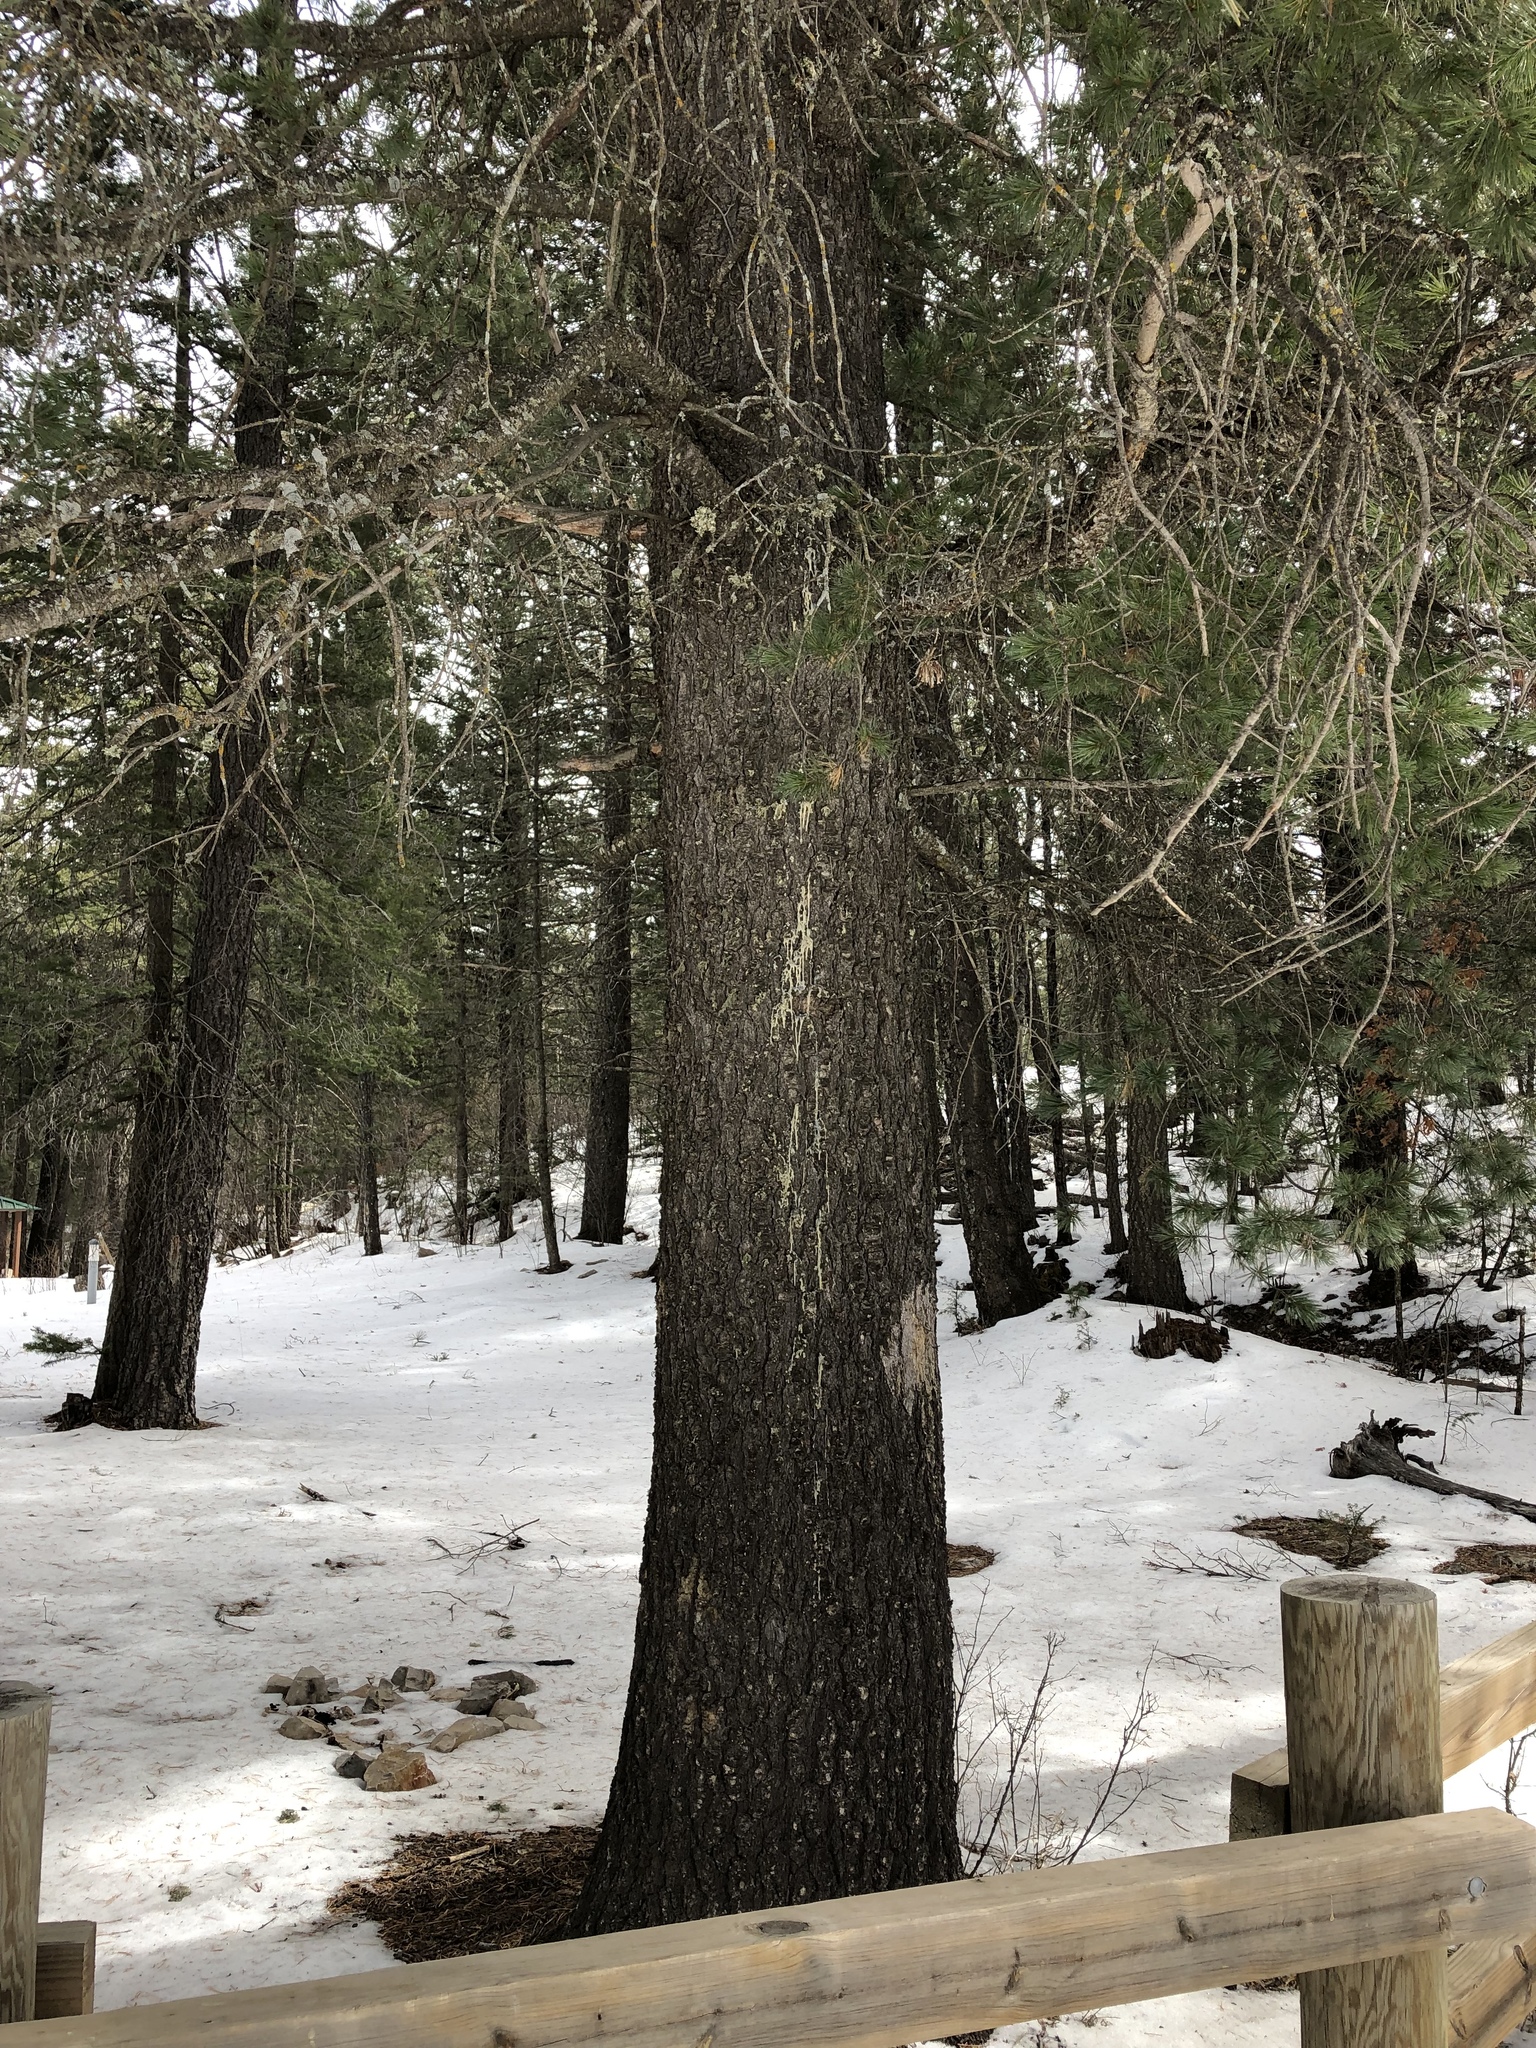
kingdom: Plantae
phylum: Tracheophyta
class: Pinopsida
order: Pinales
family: Pinaceae
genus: Pinus
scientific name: Pinus strobiformis
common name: Southwestern white pine
